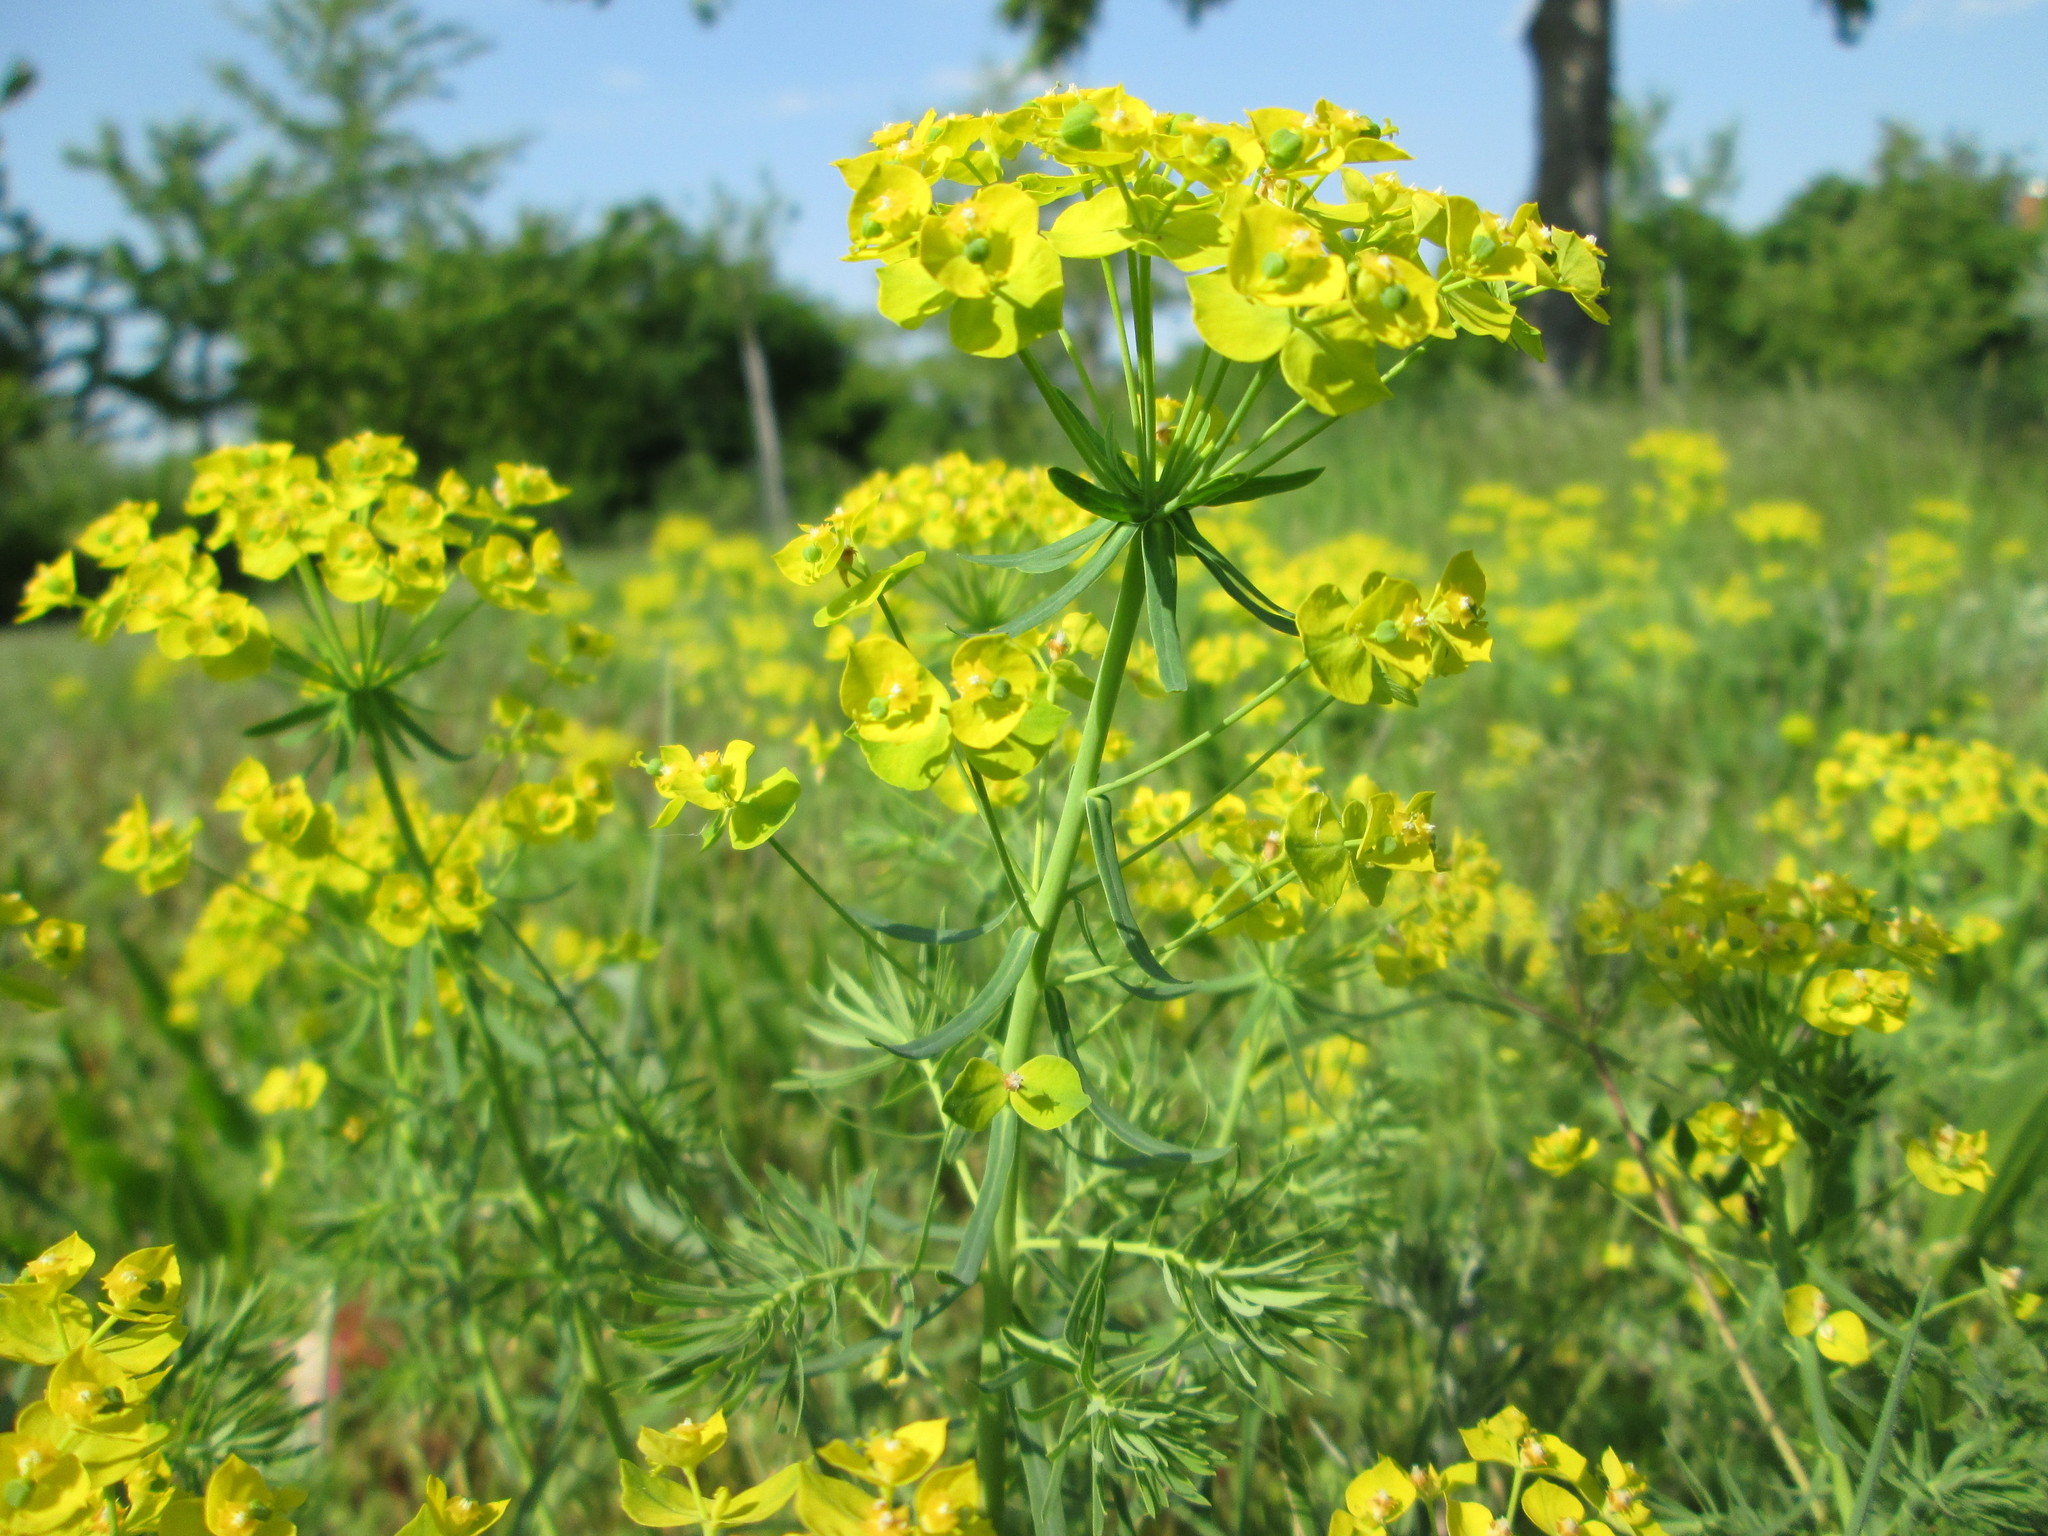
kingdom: Plantae
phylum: Tracheophyta
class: Magnoliopsida
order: Malpighiales
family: Euphorbiaceae
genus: Euphorbia
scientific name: Euphorbia cyparissias
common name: Cypress spurge
